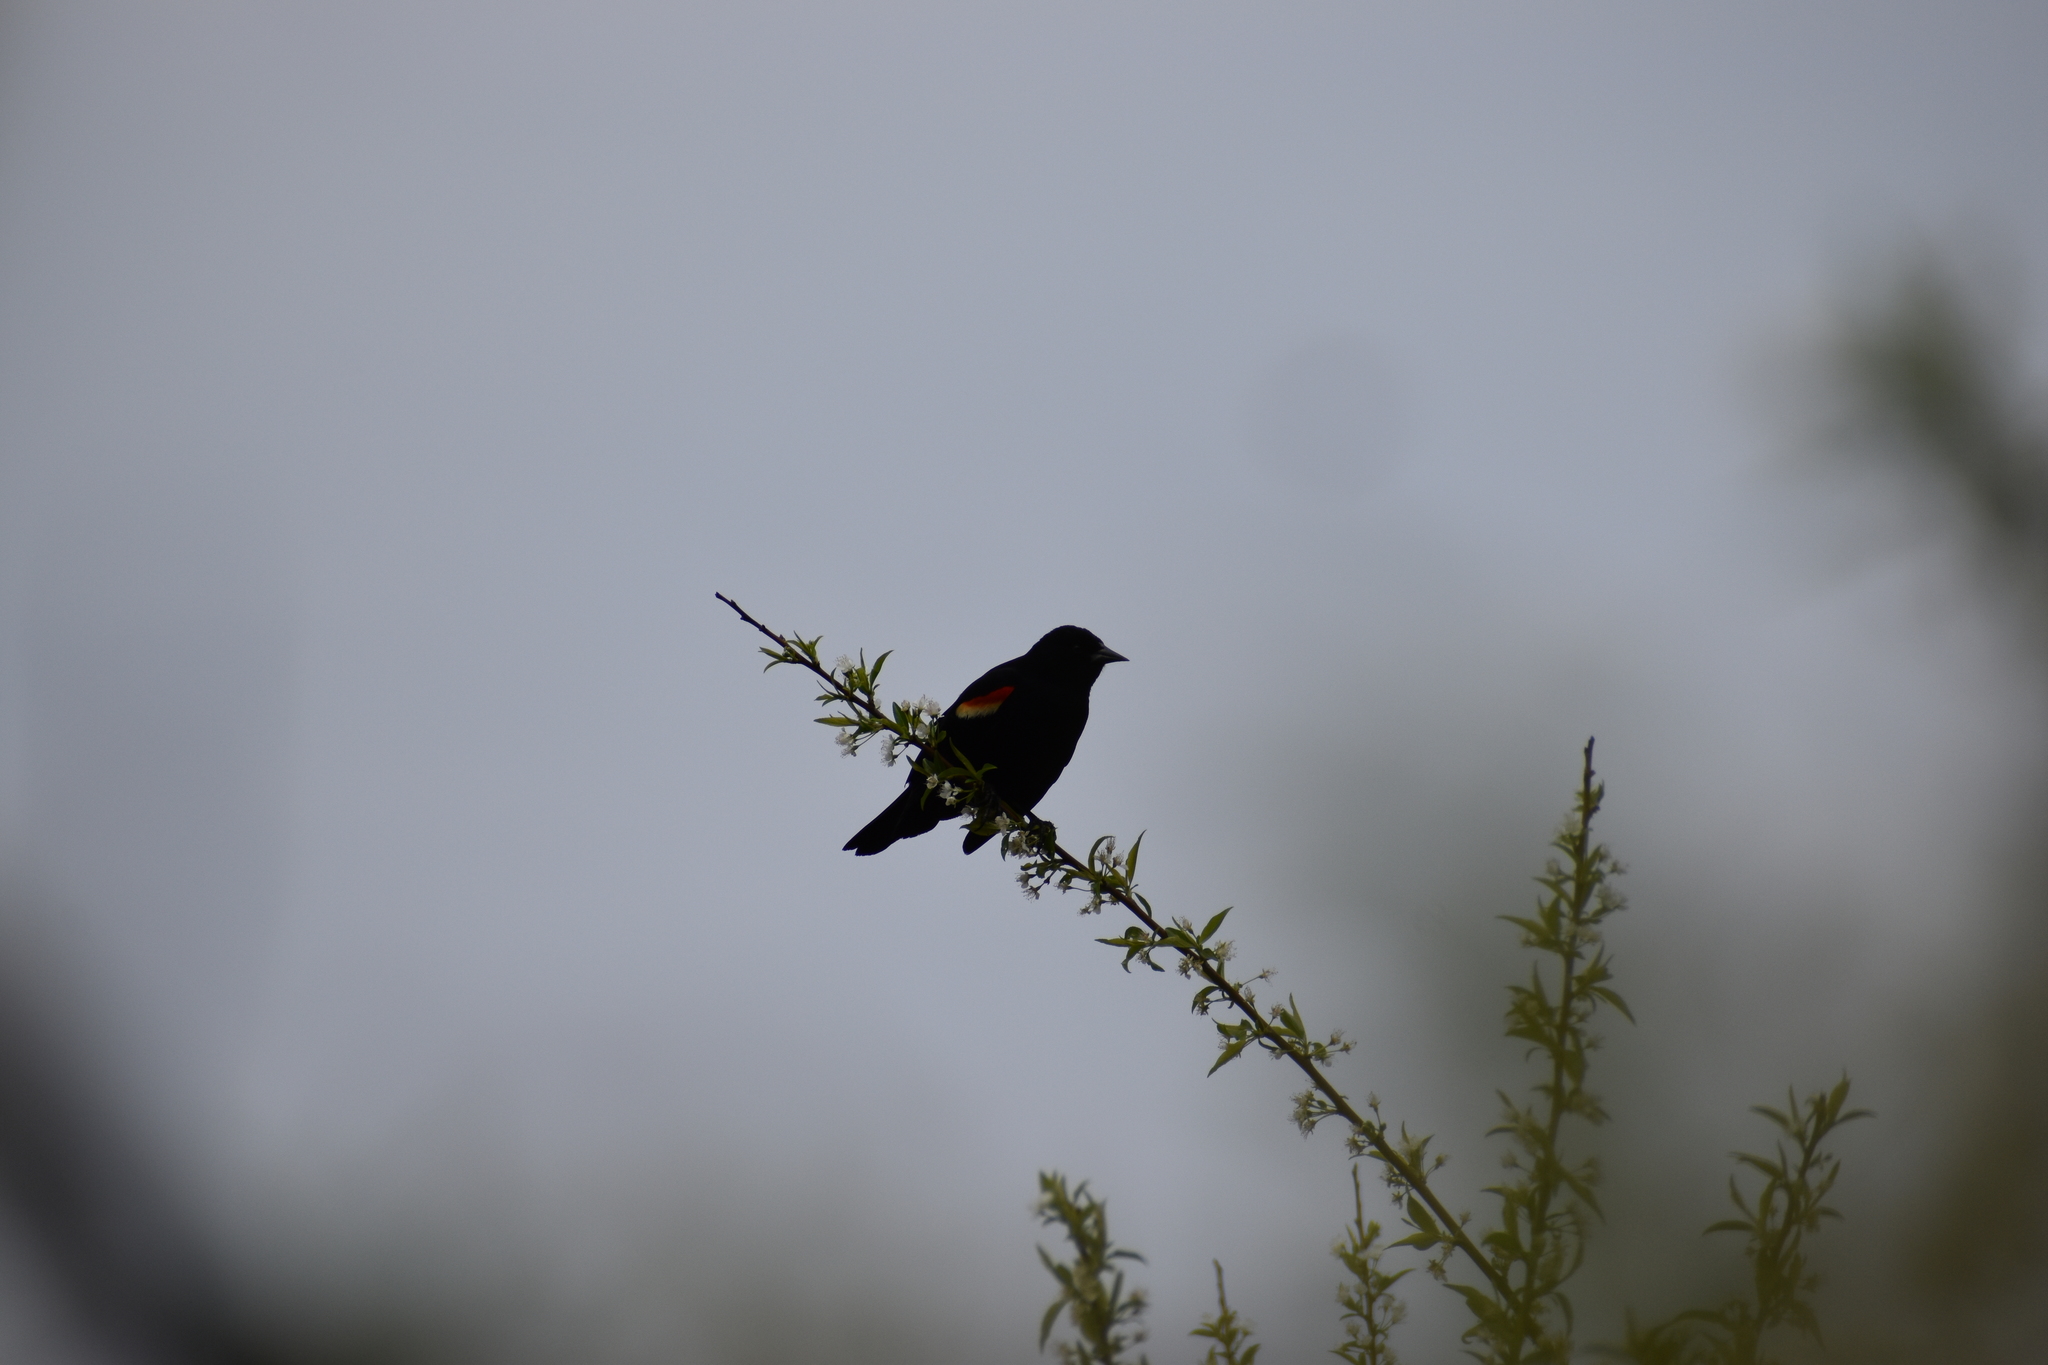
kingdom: Animalia
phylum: Chordata
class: Aves
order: Passeriformes
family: Icteridae
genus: Agelaius
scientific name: Agelaius phoeniceus
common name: Red-winged blackbird
